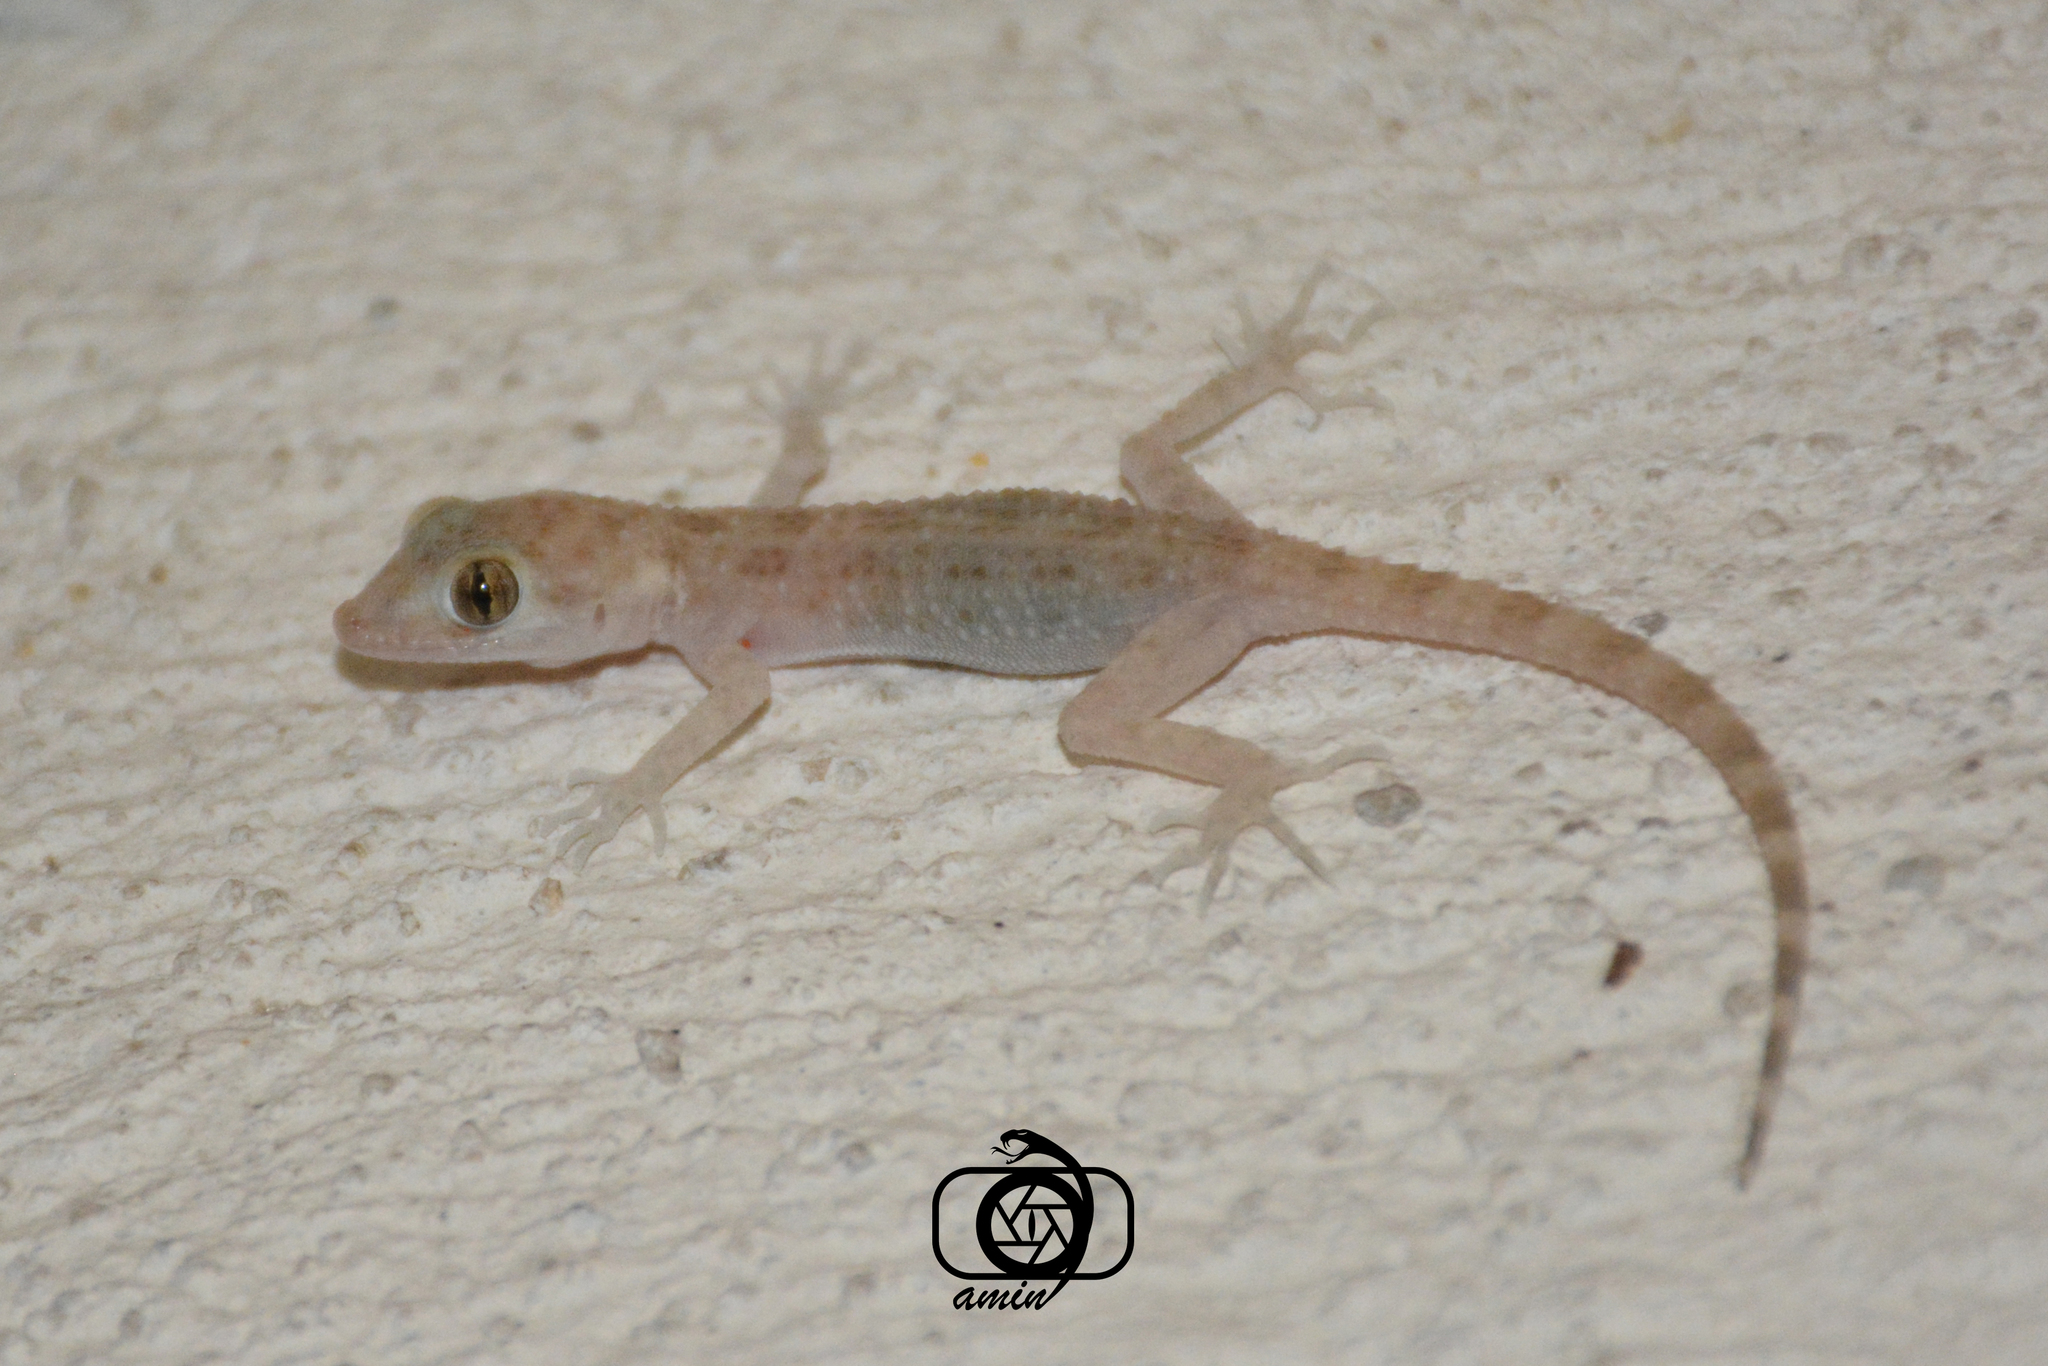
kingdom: Animalia
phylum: Chordata
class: Squamata
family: Gekkonidae
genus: Cyrtopodion
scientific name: Cyrtopodion scabrum
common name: Rough-tailed gecko
